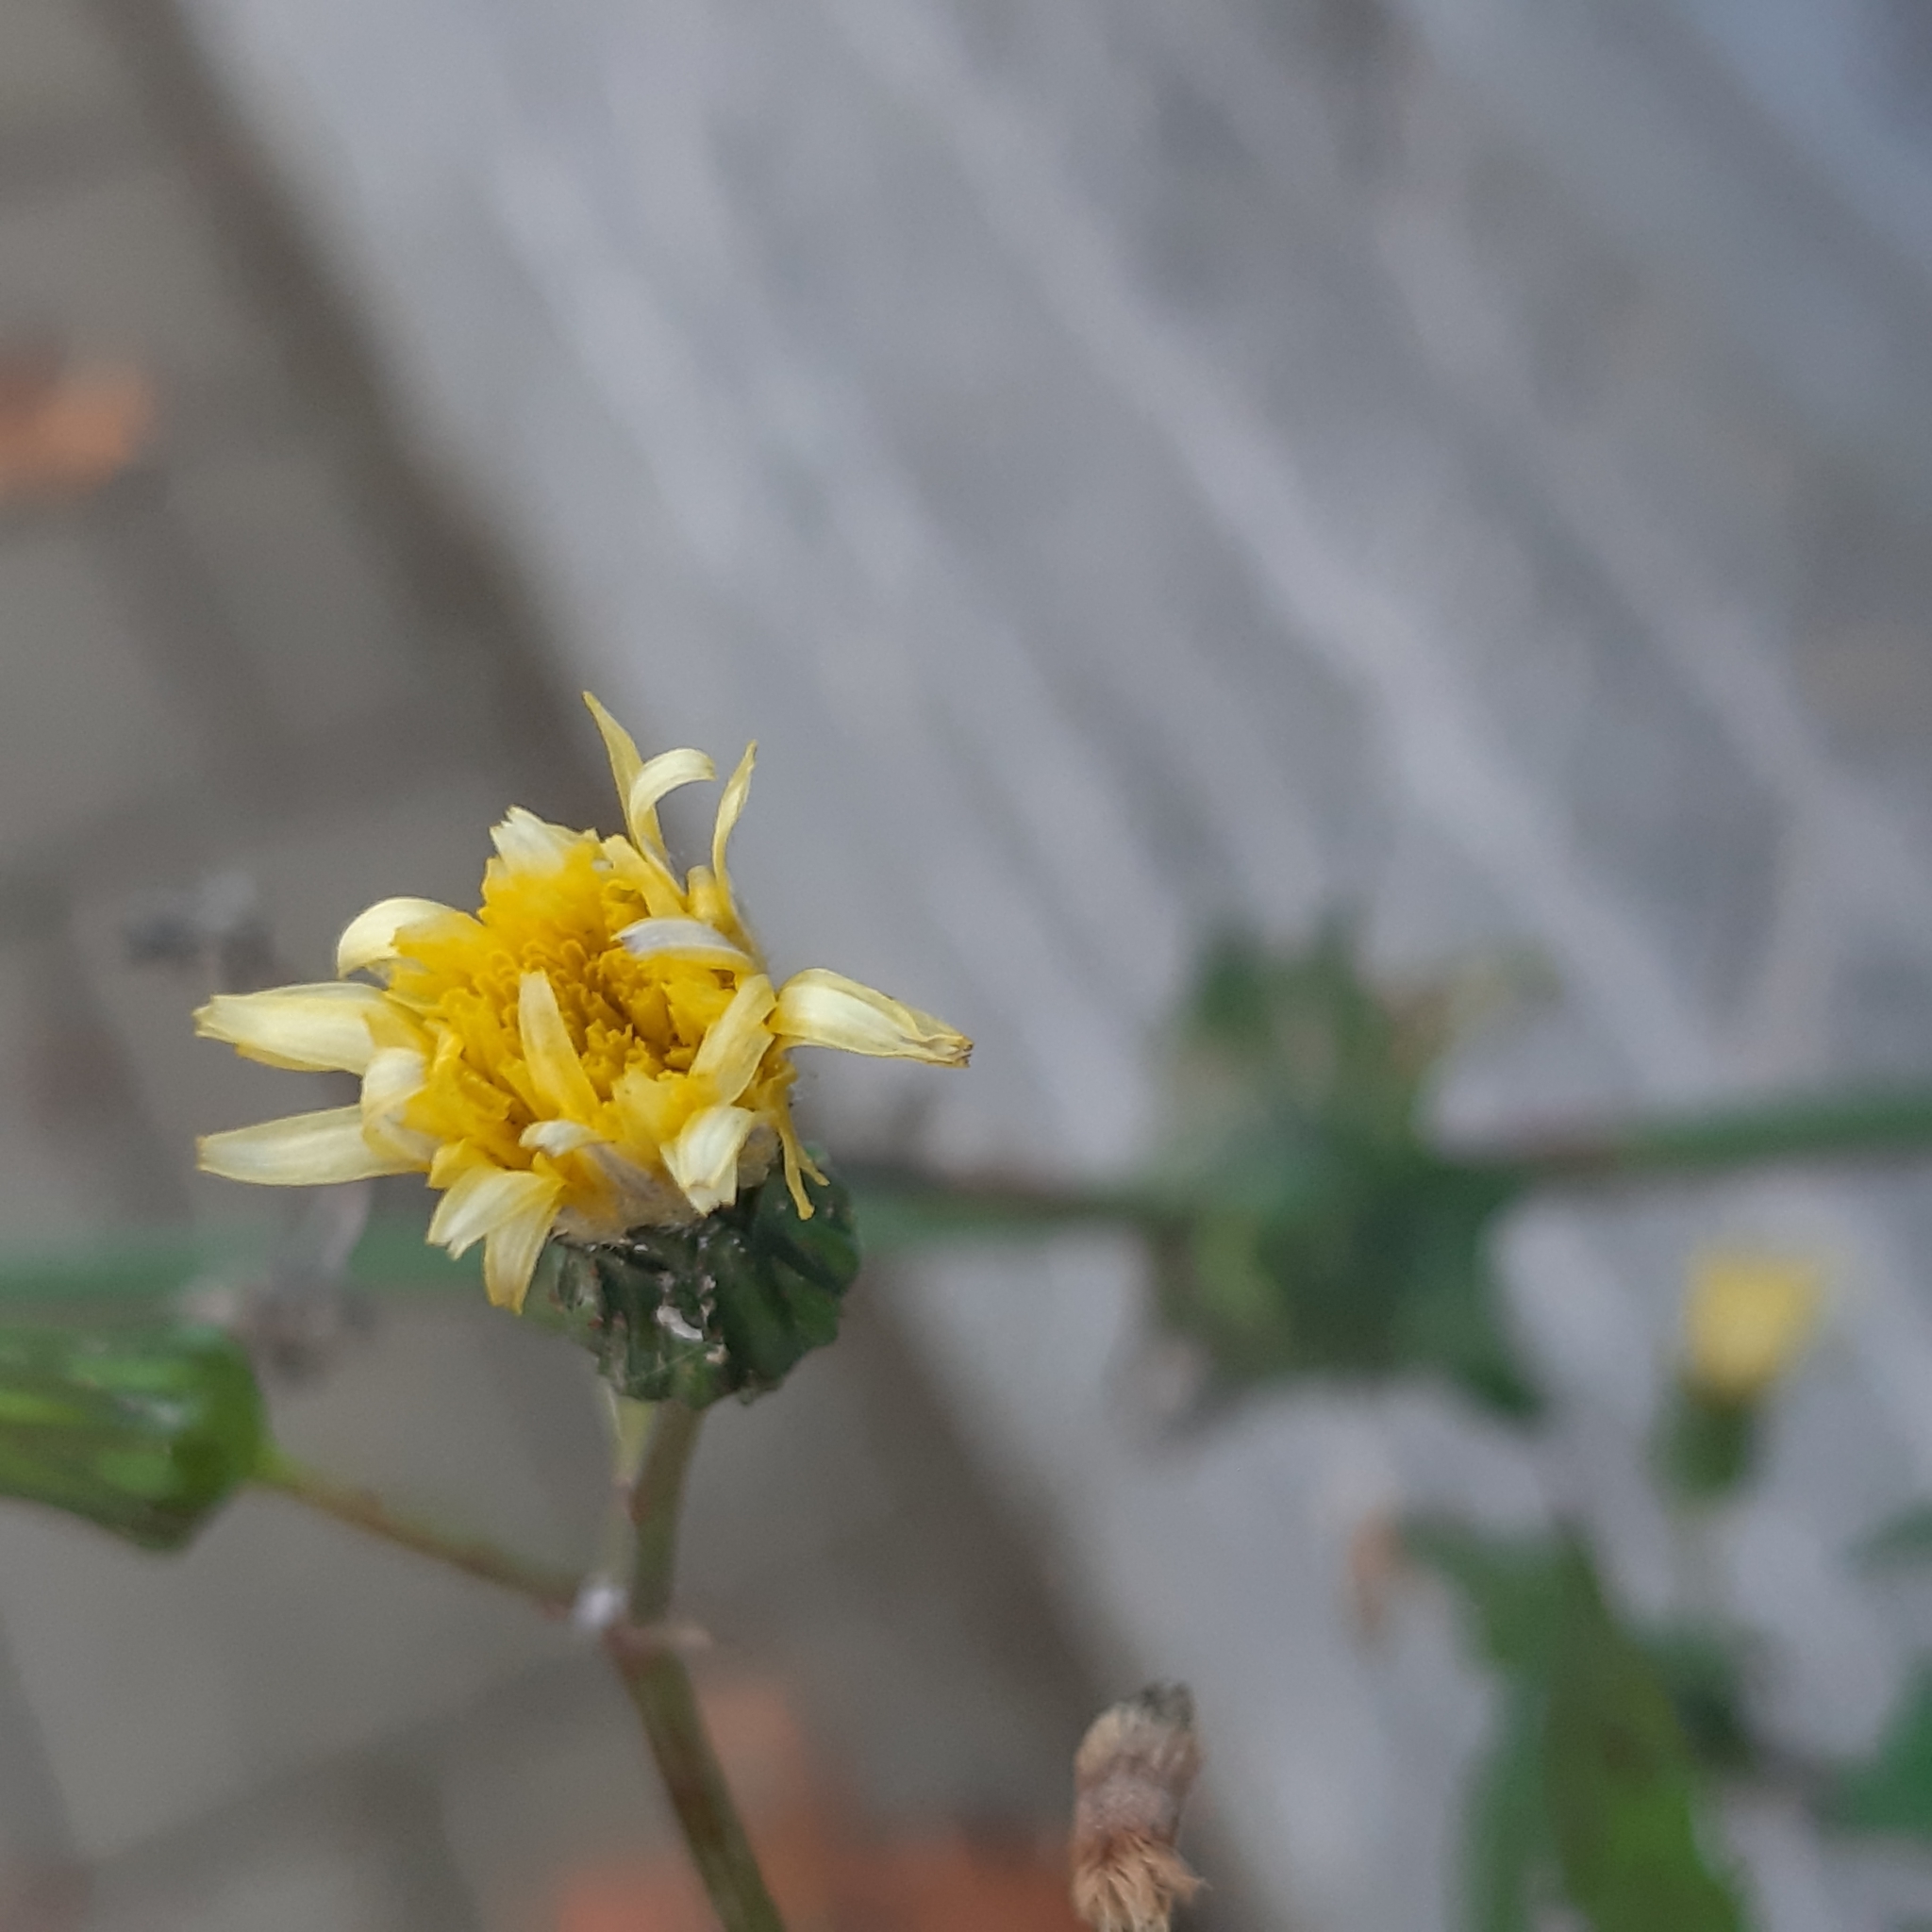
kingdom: Plantae
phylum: Tracheophyta
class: Magnoliopsida
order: Asterales
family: Asteraceae
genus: Sonchus
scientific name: Sonchus oleraceus
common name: Common sowthistle
